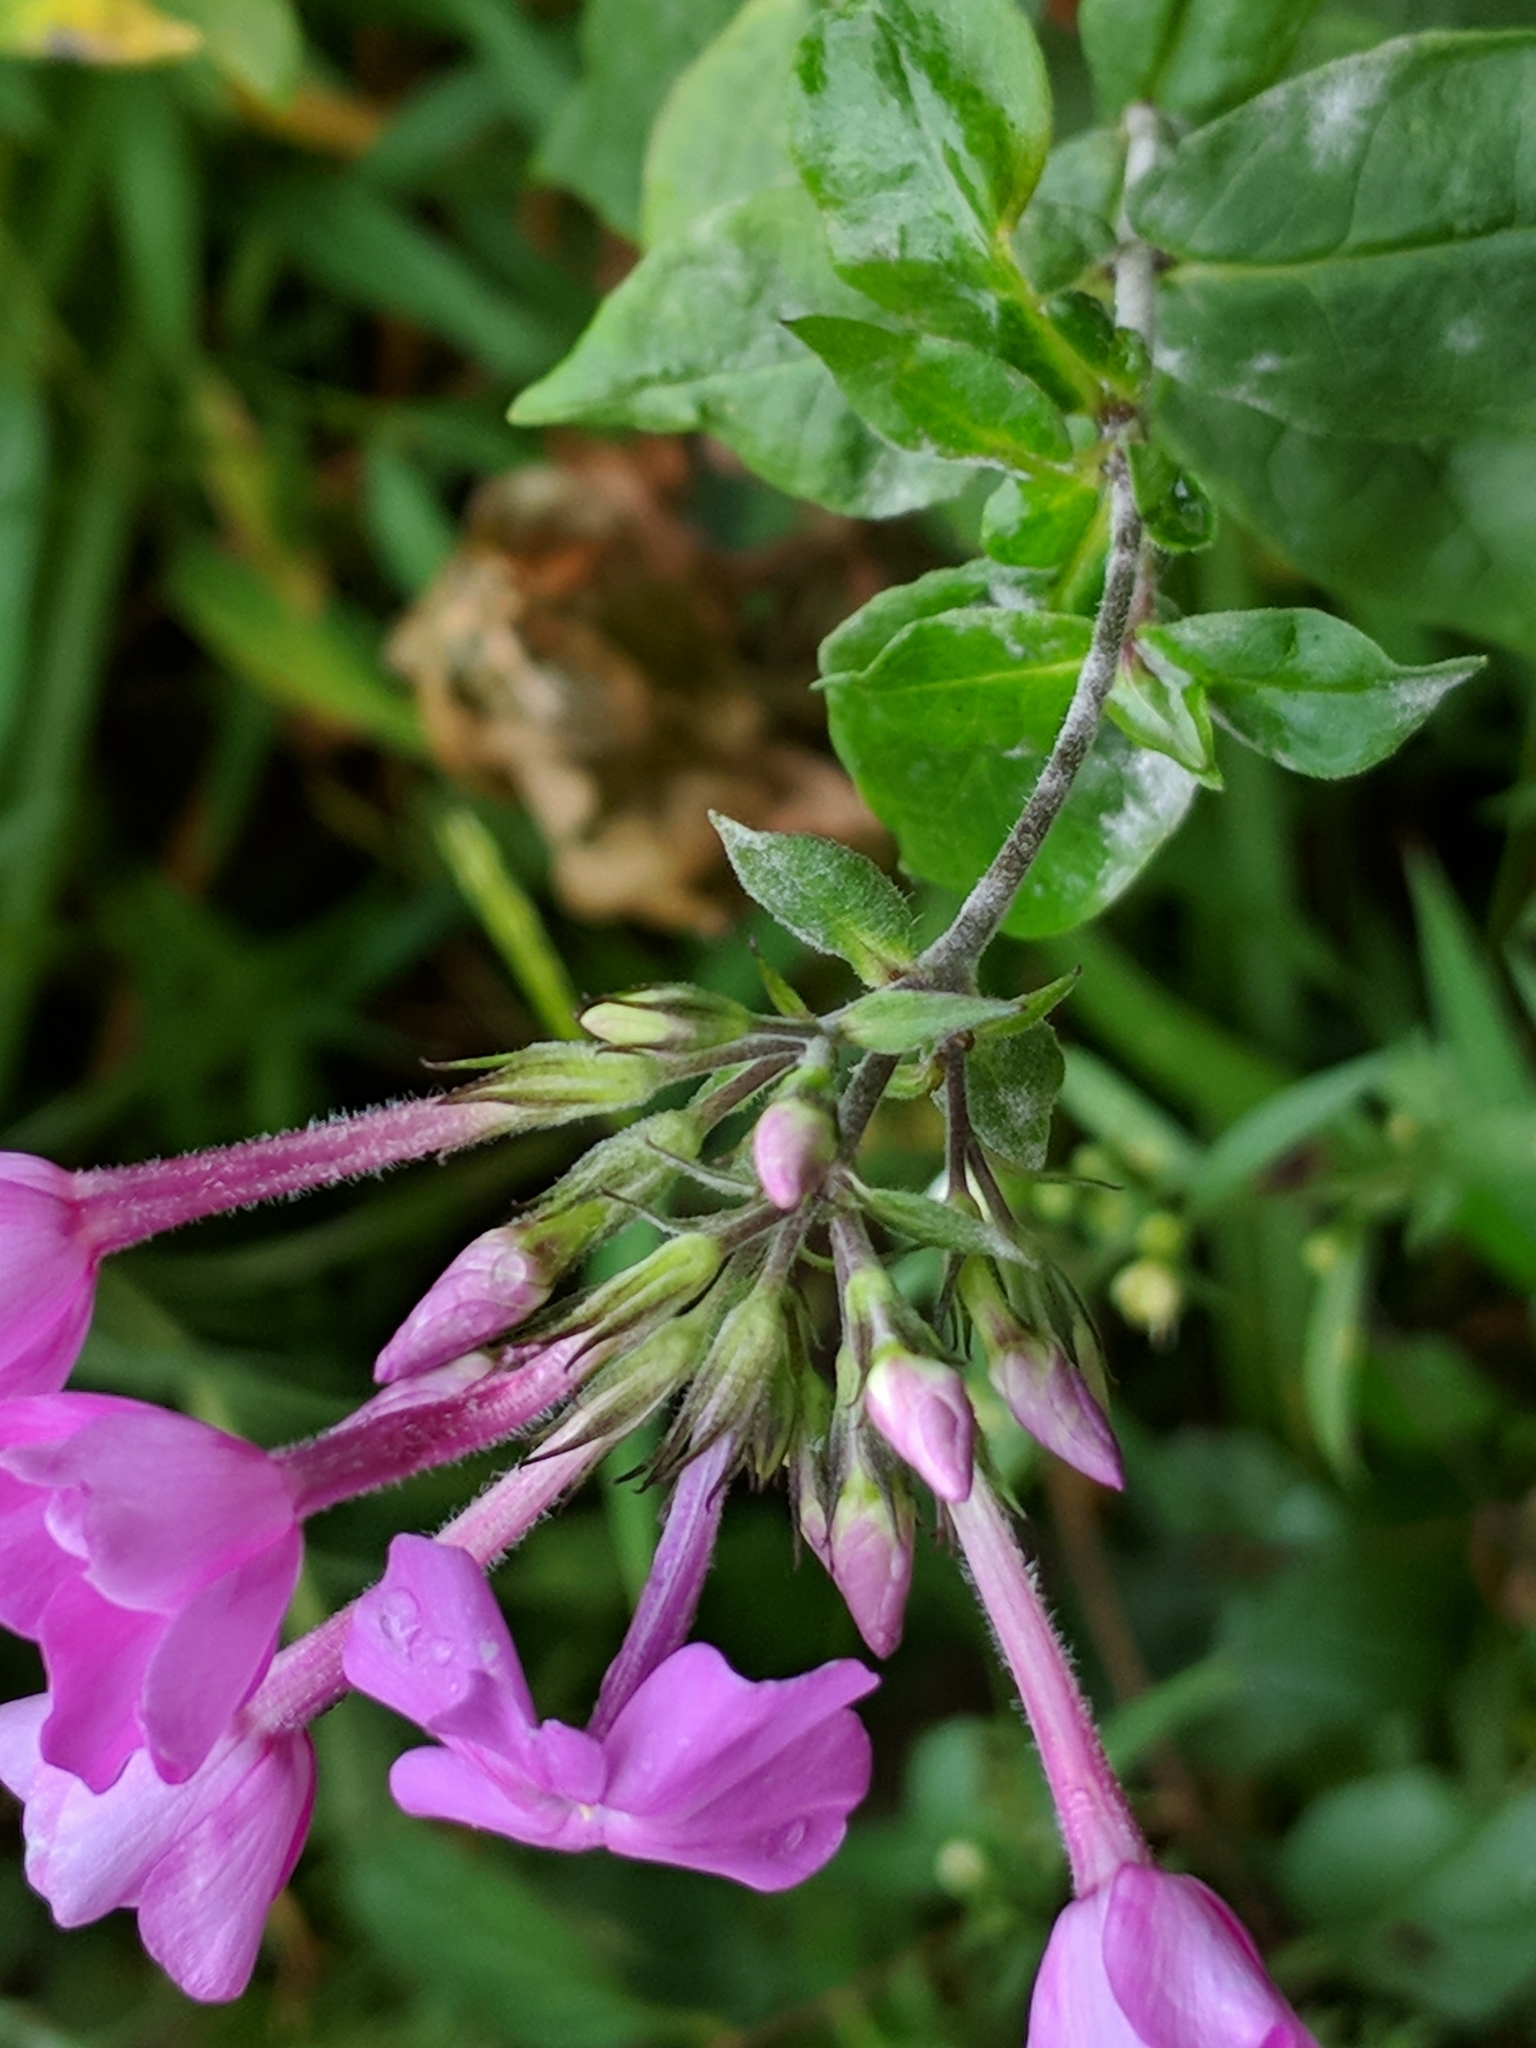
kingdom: Plantae
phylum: Tracheophyta
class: Magnoliopsida
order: Ericales
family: Polemoniaceae
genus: Phlox
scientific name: Phlox paniculata
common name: Fall phlox
